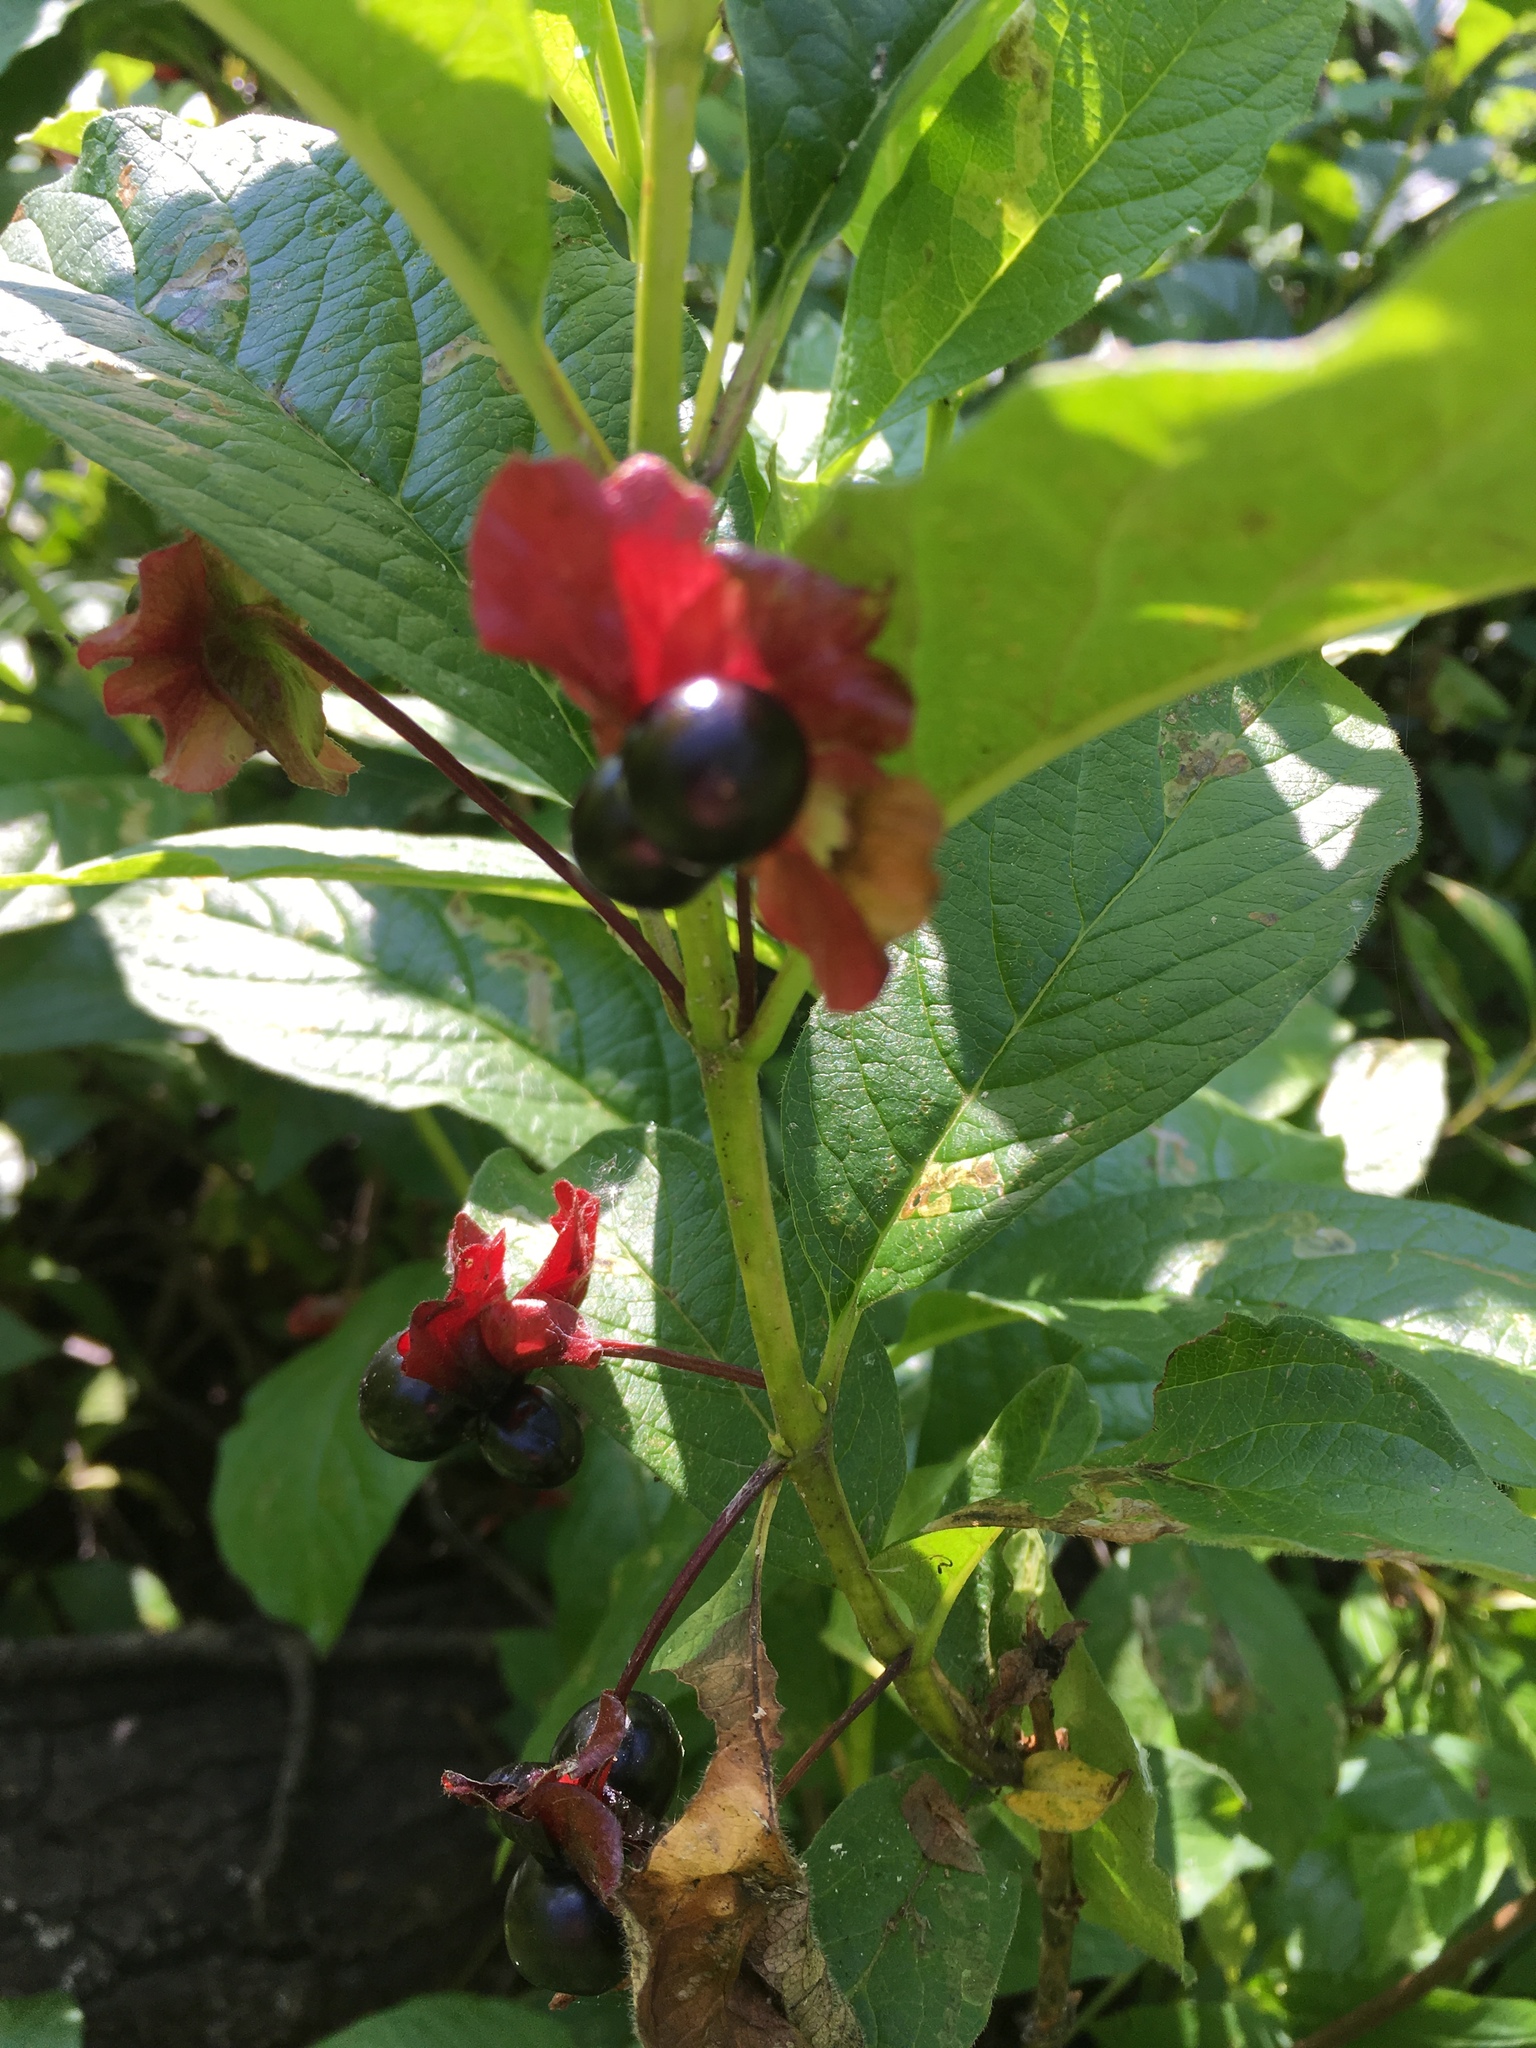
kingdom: Plantae
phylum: Tracheophyta
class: Magnoliopsida
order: Dipsacales
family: Caprifoliaceae
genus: Lonicera
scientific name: Lonicera involucrata
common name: Californian honeysuckle
